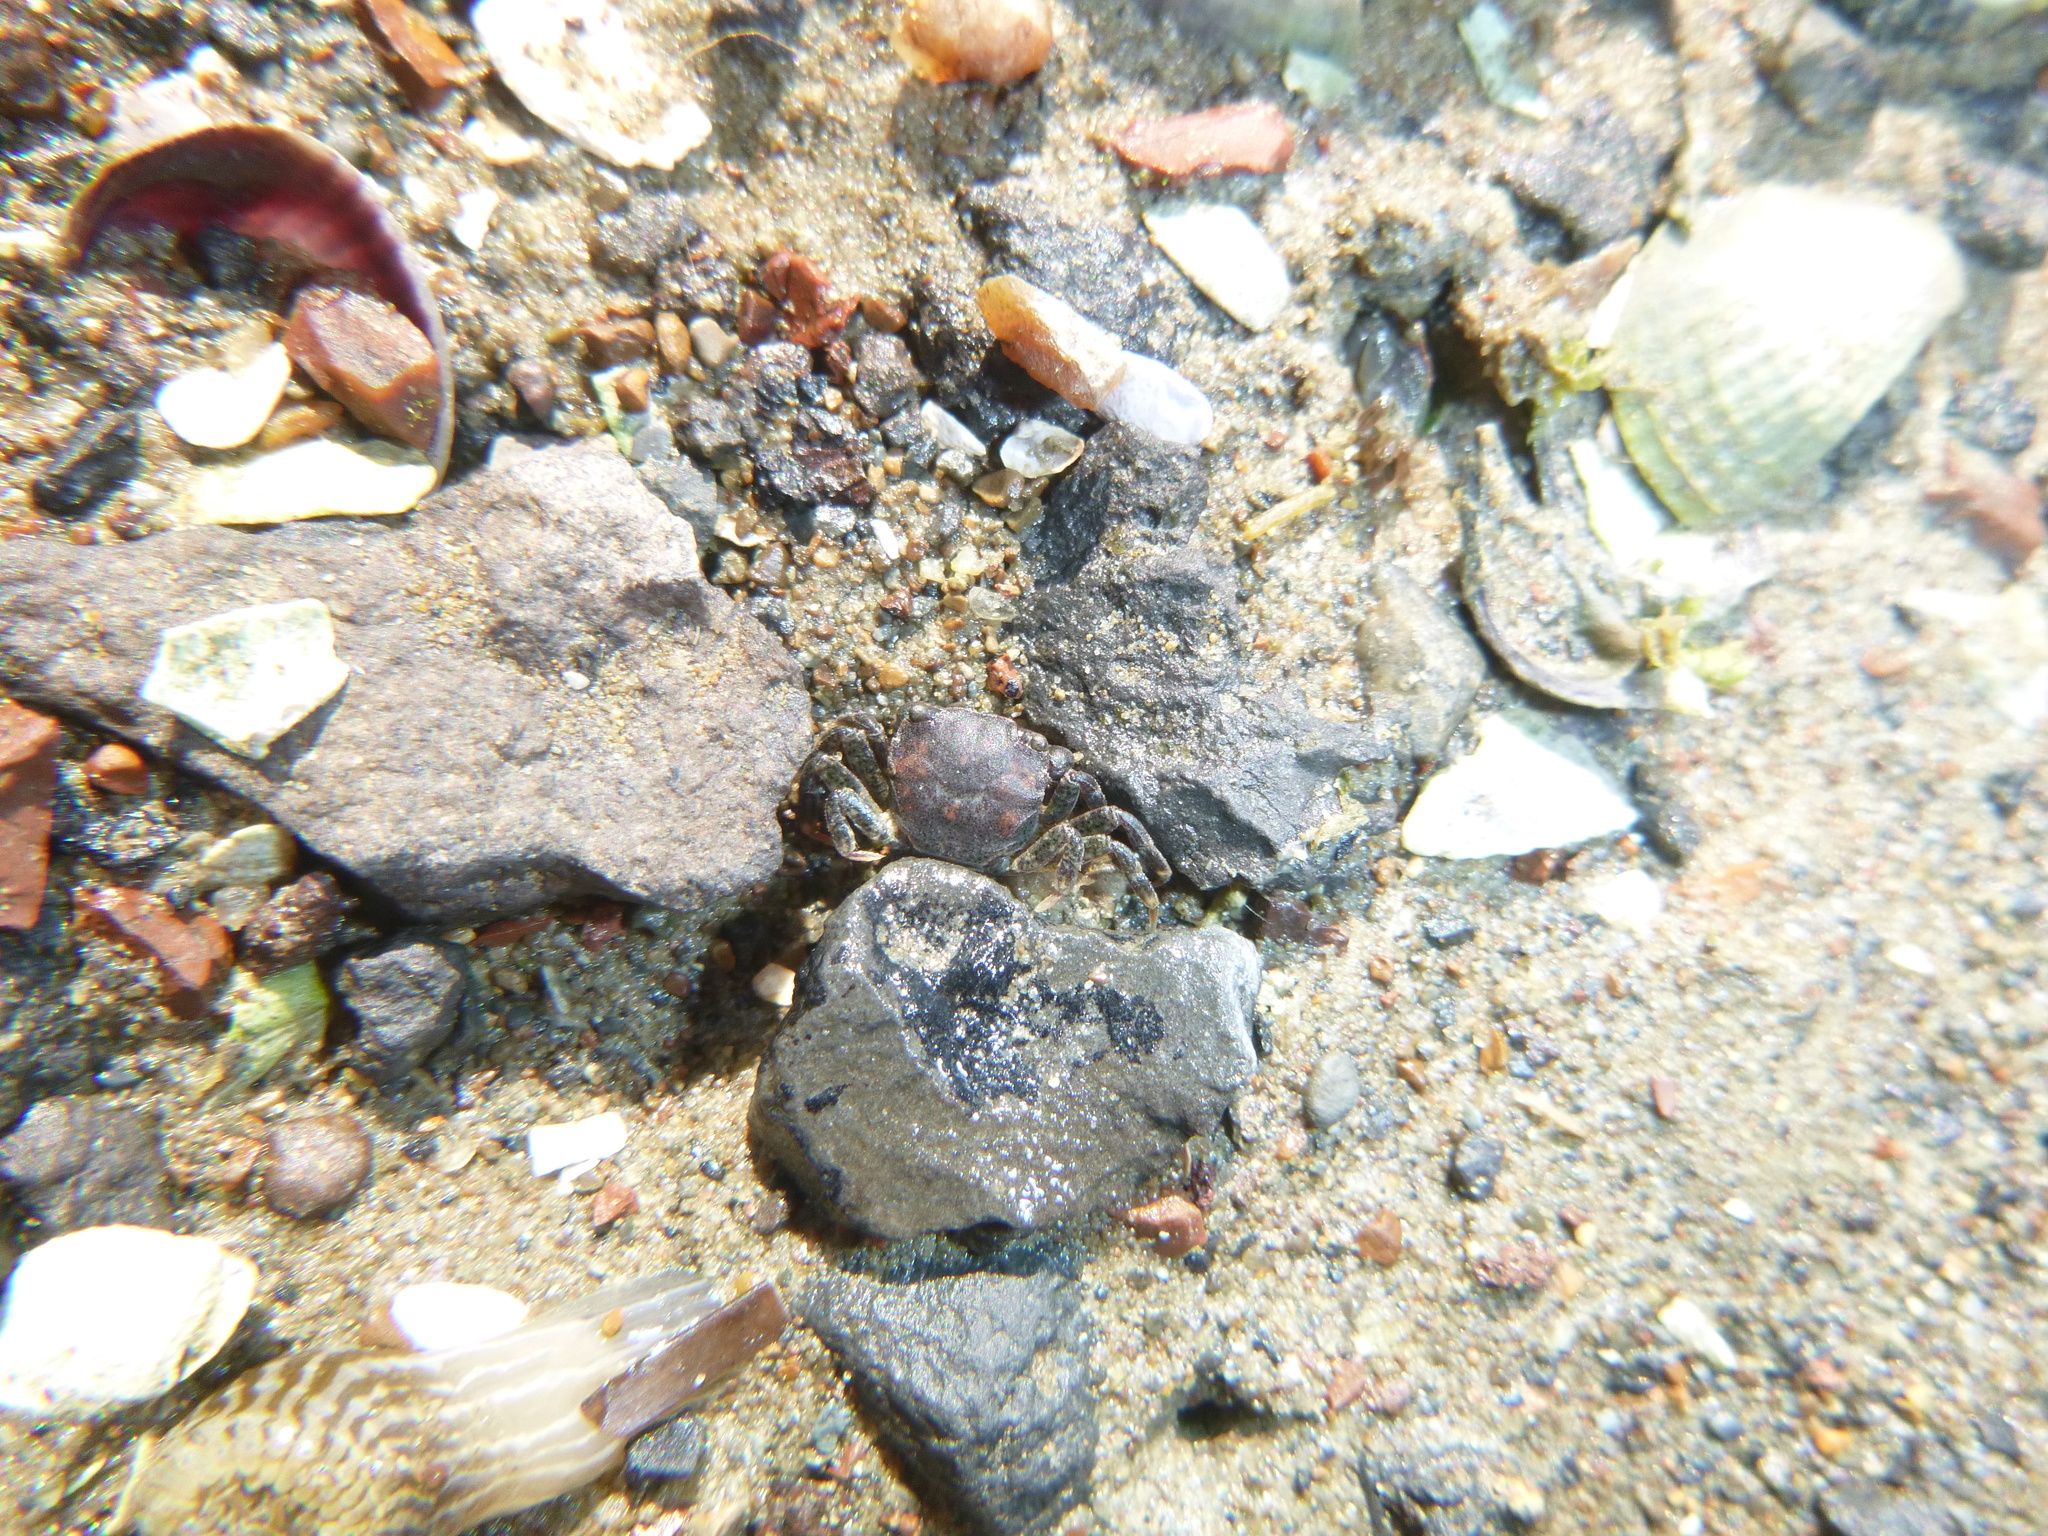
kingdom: Animalia
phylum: Arthropoda
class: Malacostraca
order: Decapoda
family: Varunidae
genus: Hemigrapsus
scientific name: Hemigrapsus crenulatus
